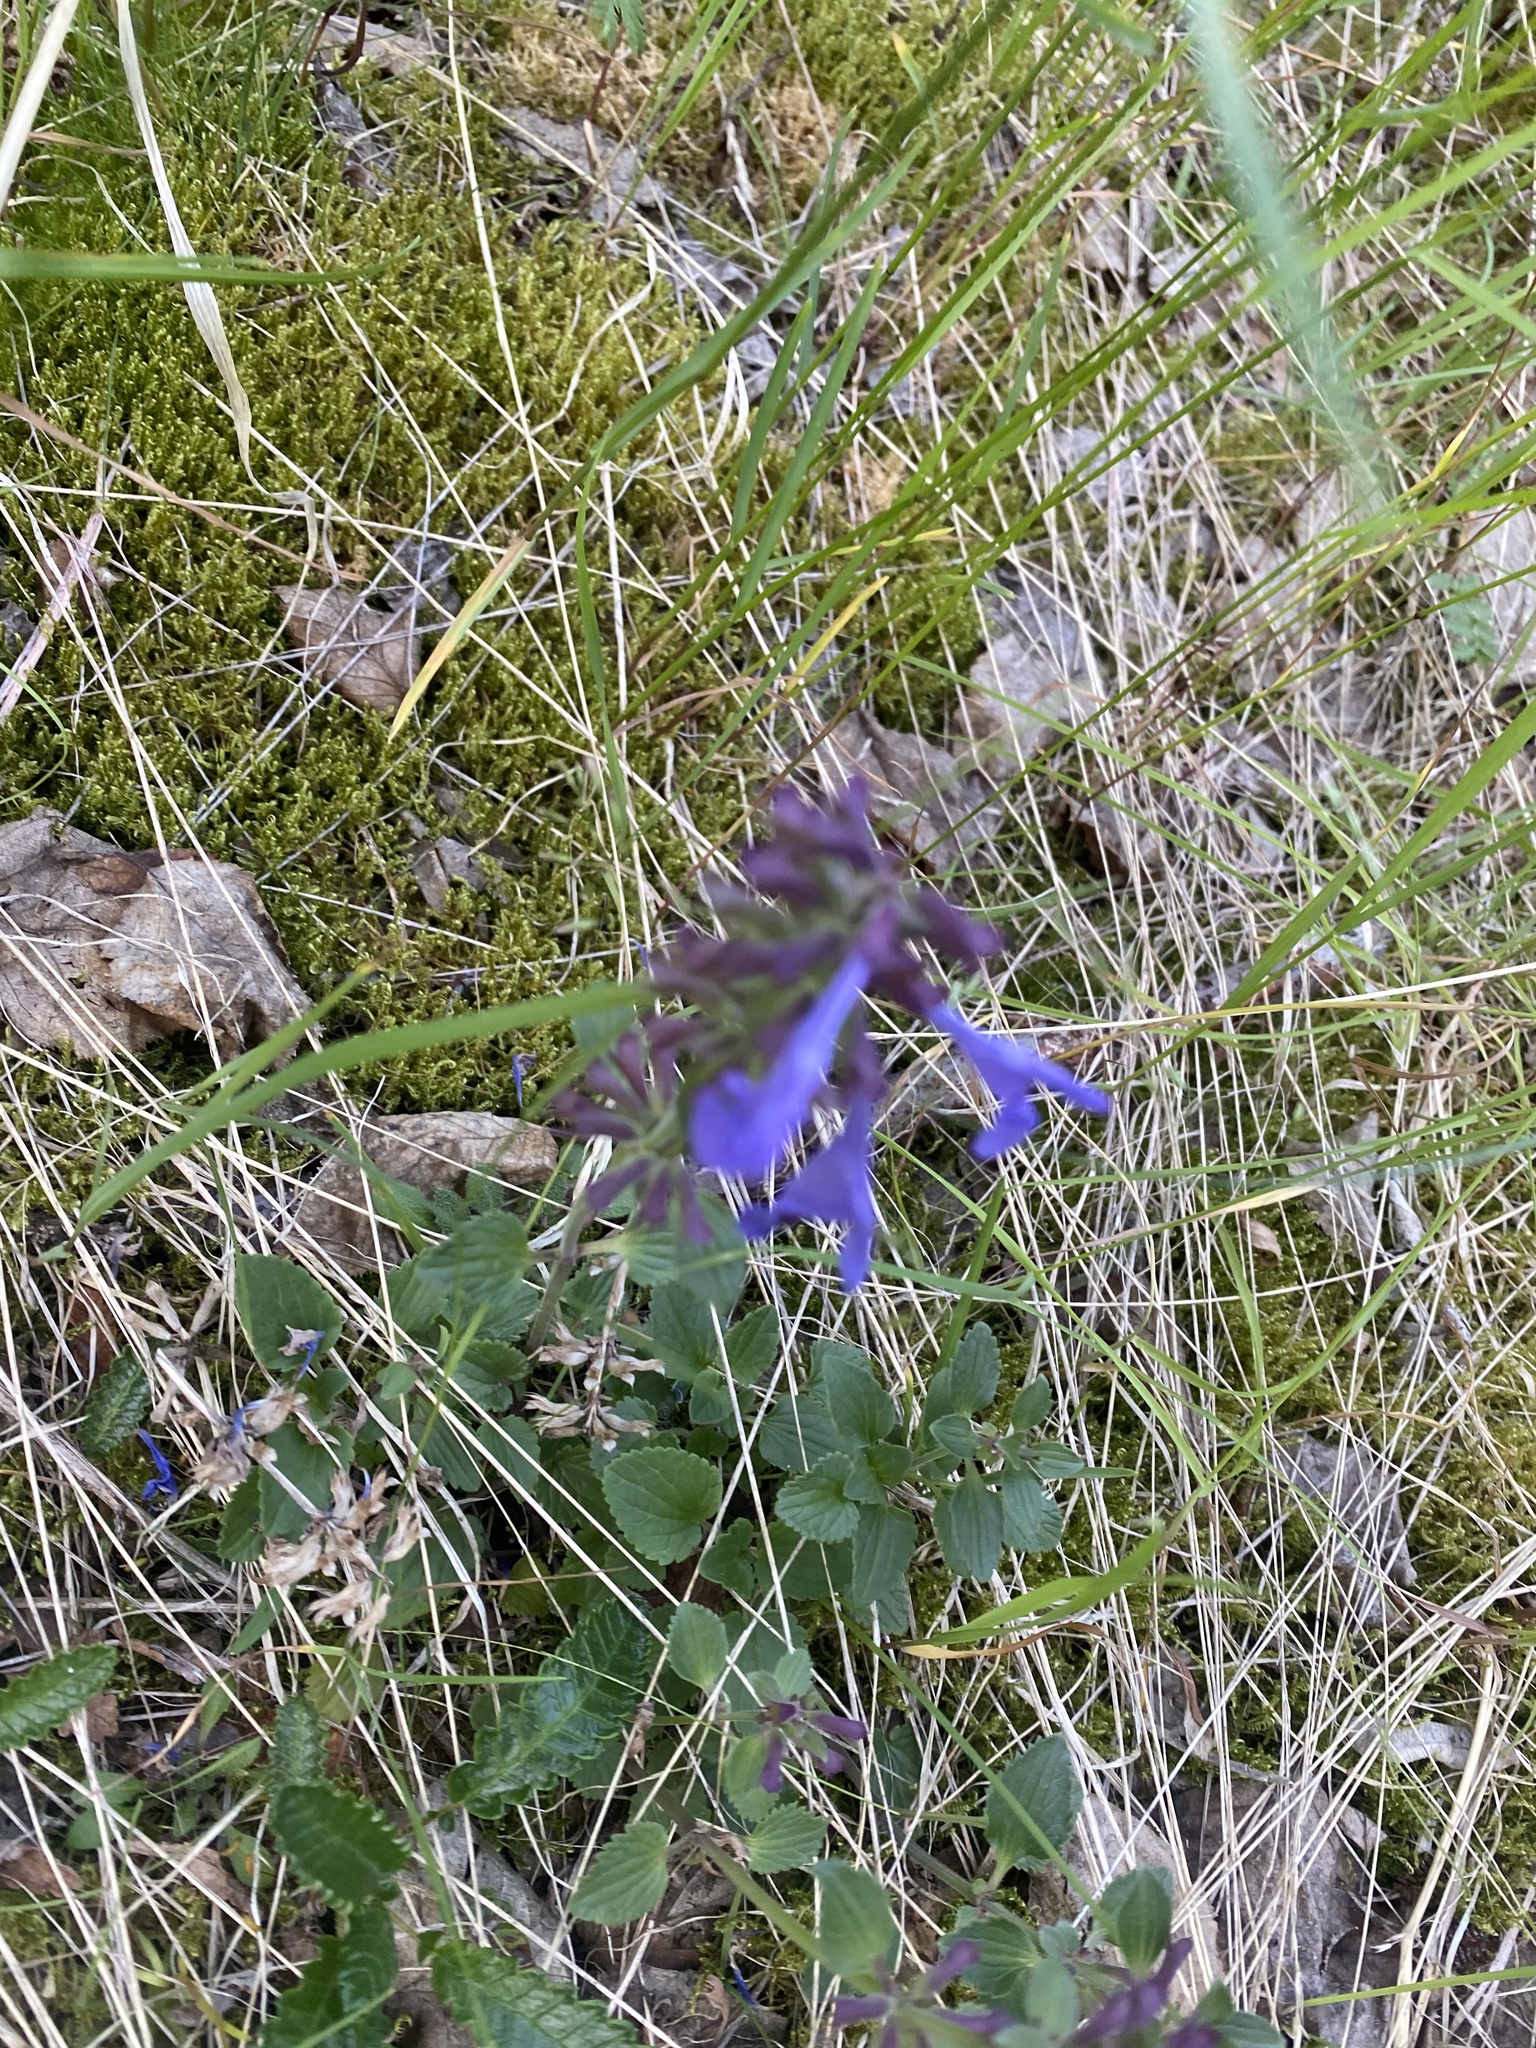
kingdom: Plantae
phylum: Tracheophyta
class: Magnoliopsida
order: Lamiales
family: Lamiaceae
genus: Dracocephalum
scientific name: Dracocephalum nutans
